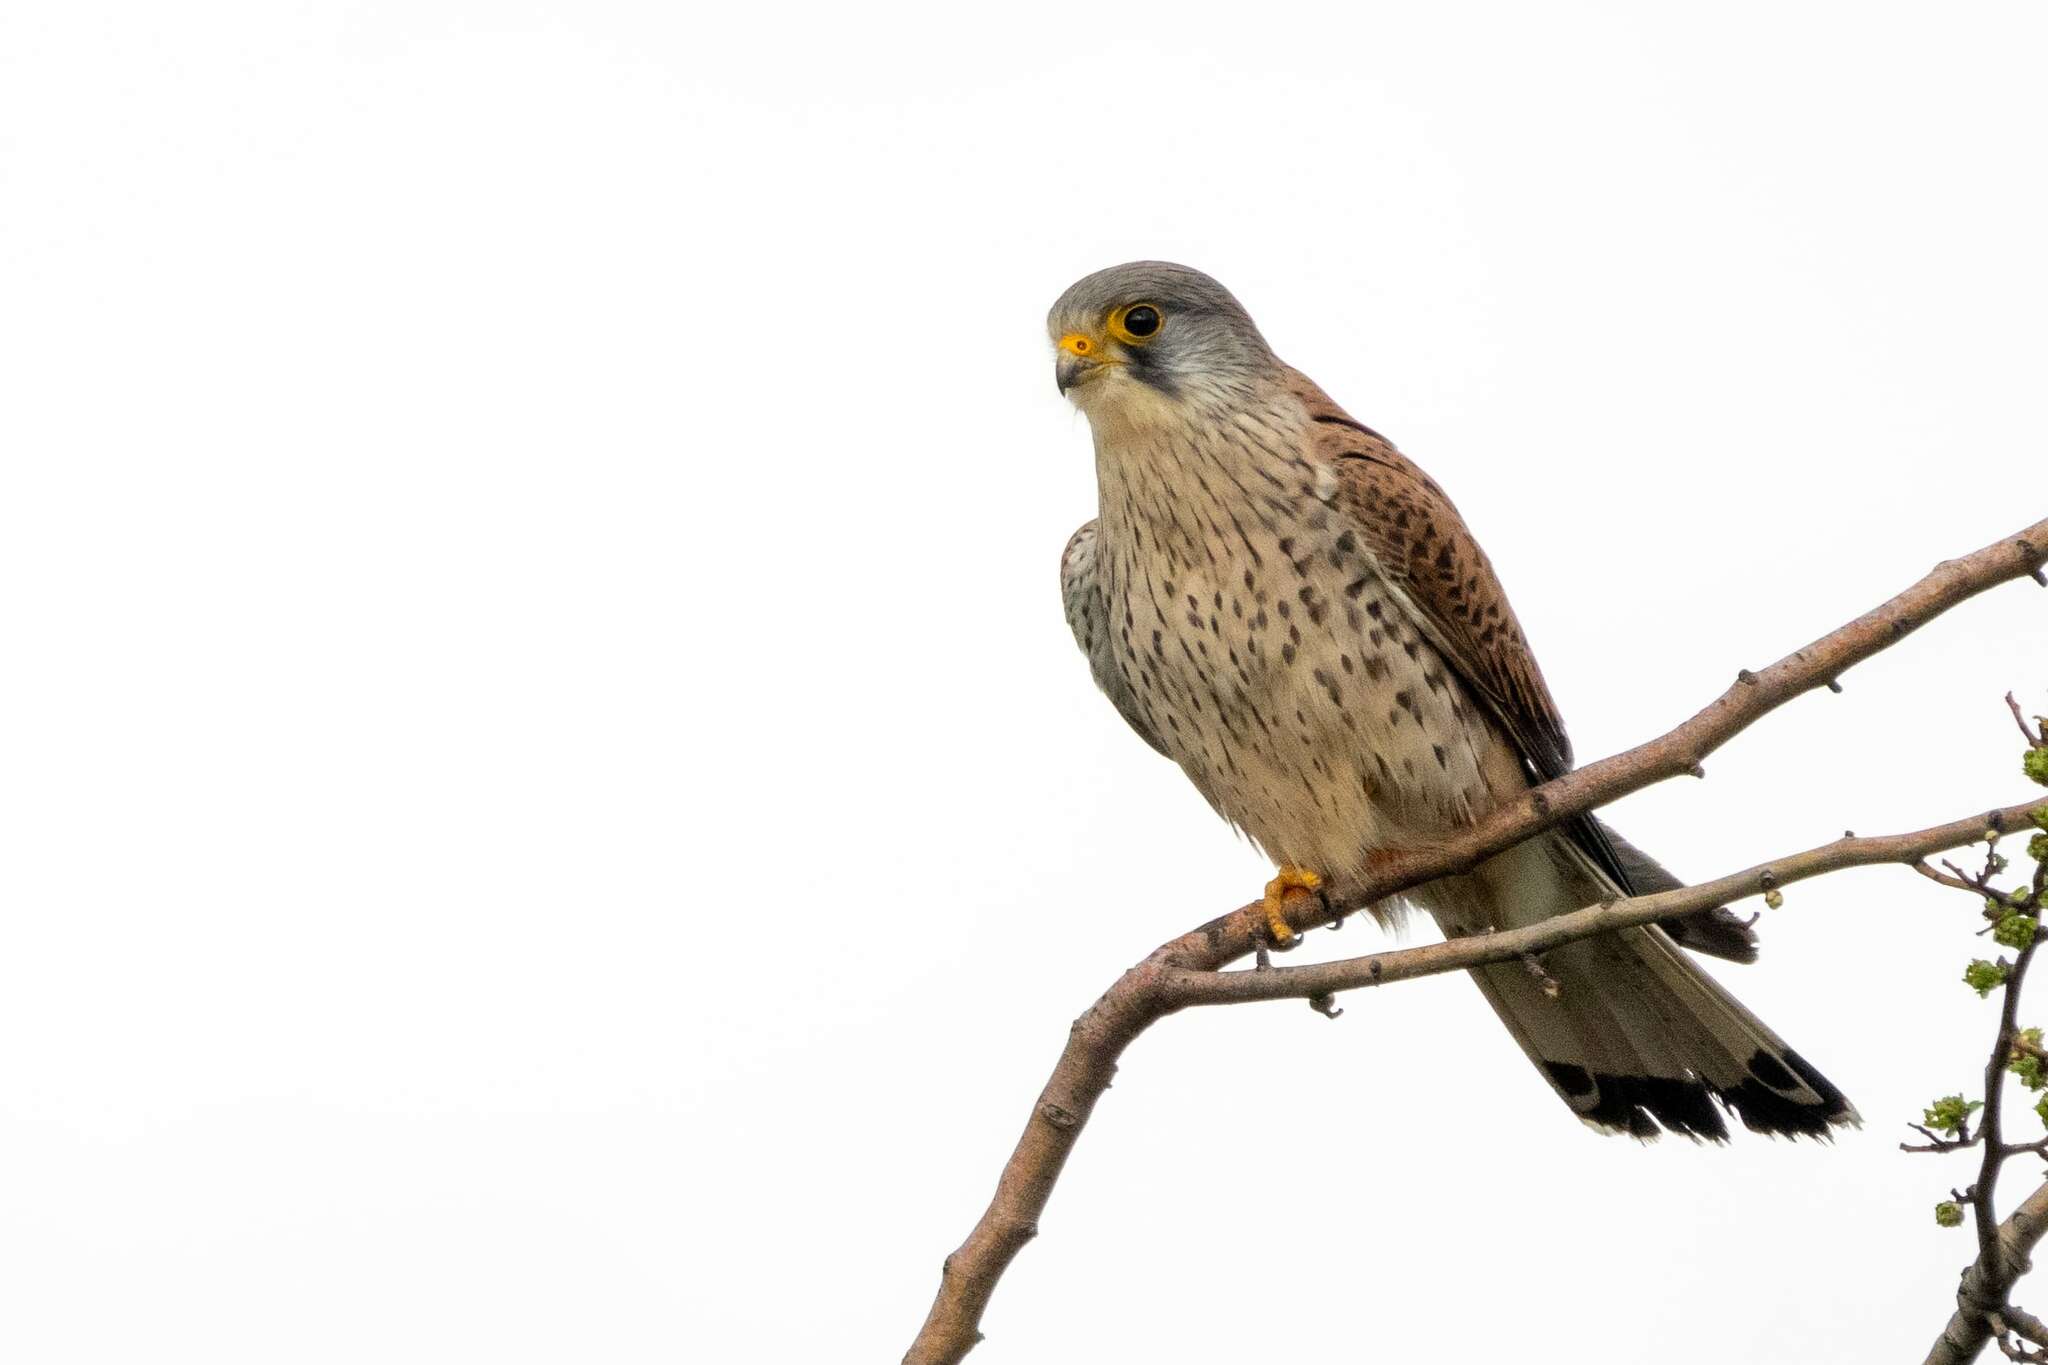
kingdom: Animalia
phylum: Chordata
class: Aves
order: Falconiformes
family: Falconidae
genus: Falco
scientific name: Falco tinnunculus
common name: Common kestrel
